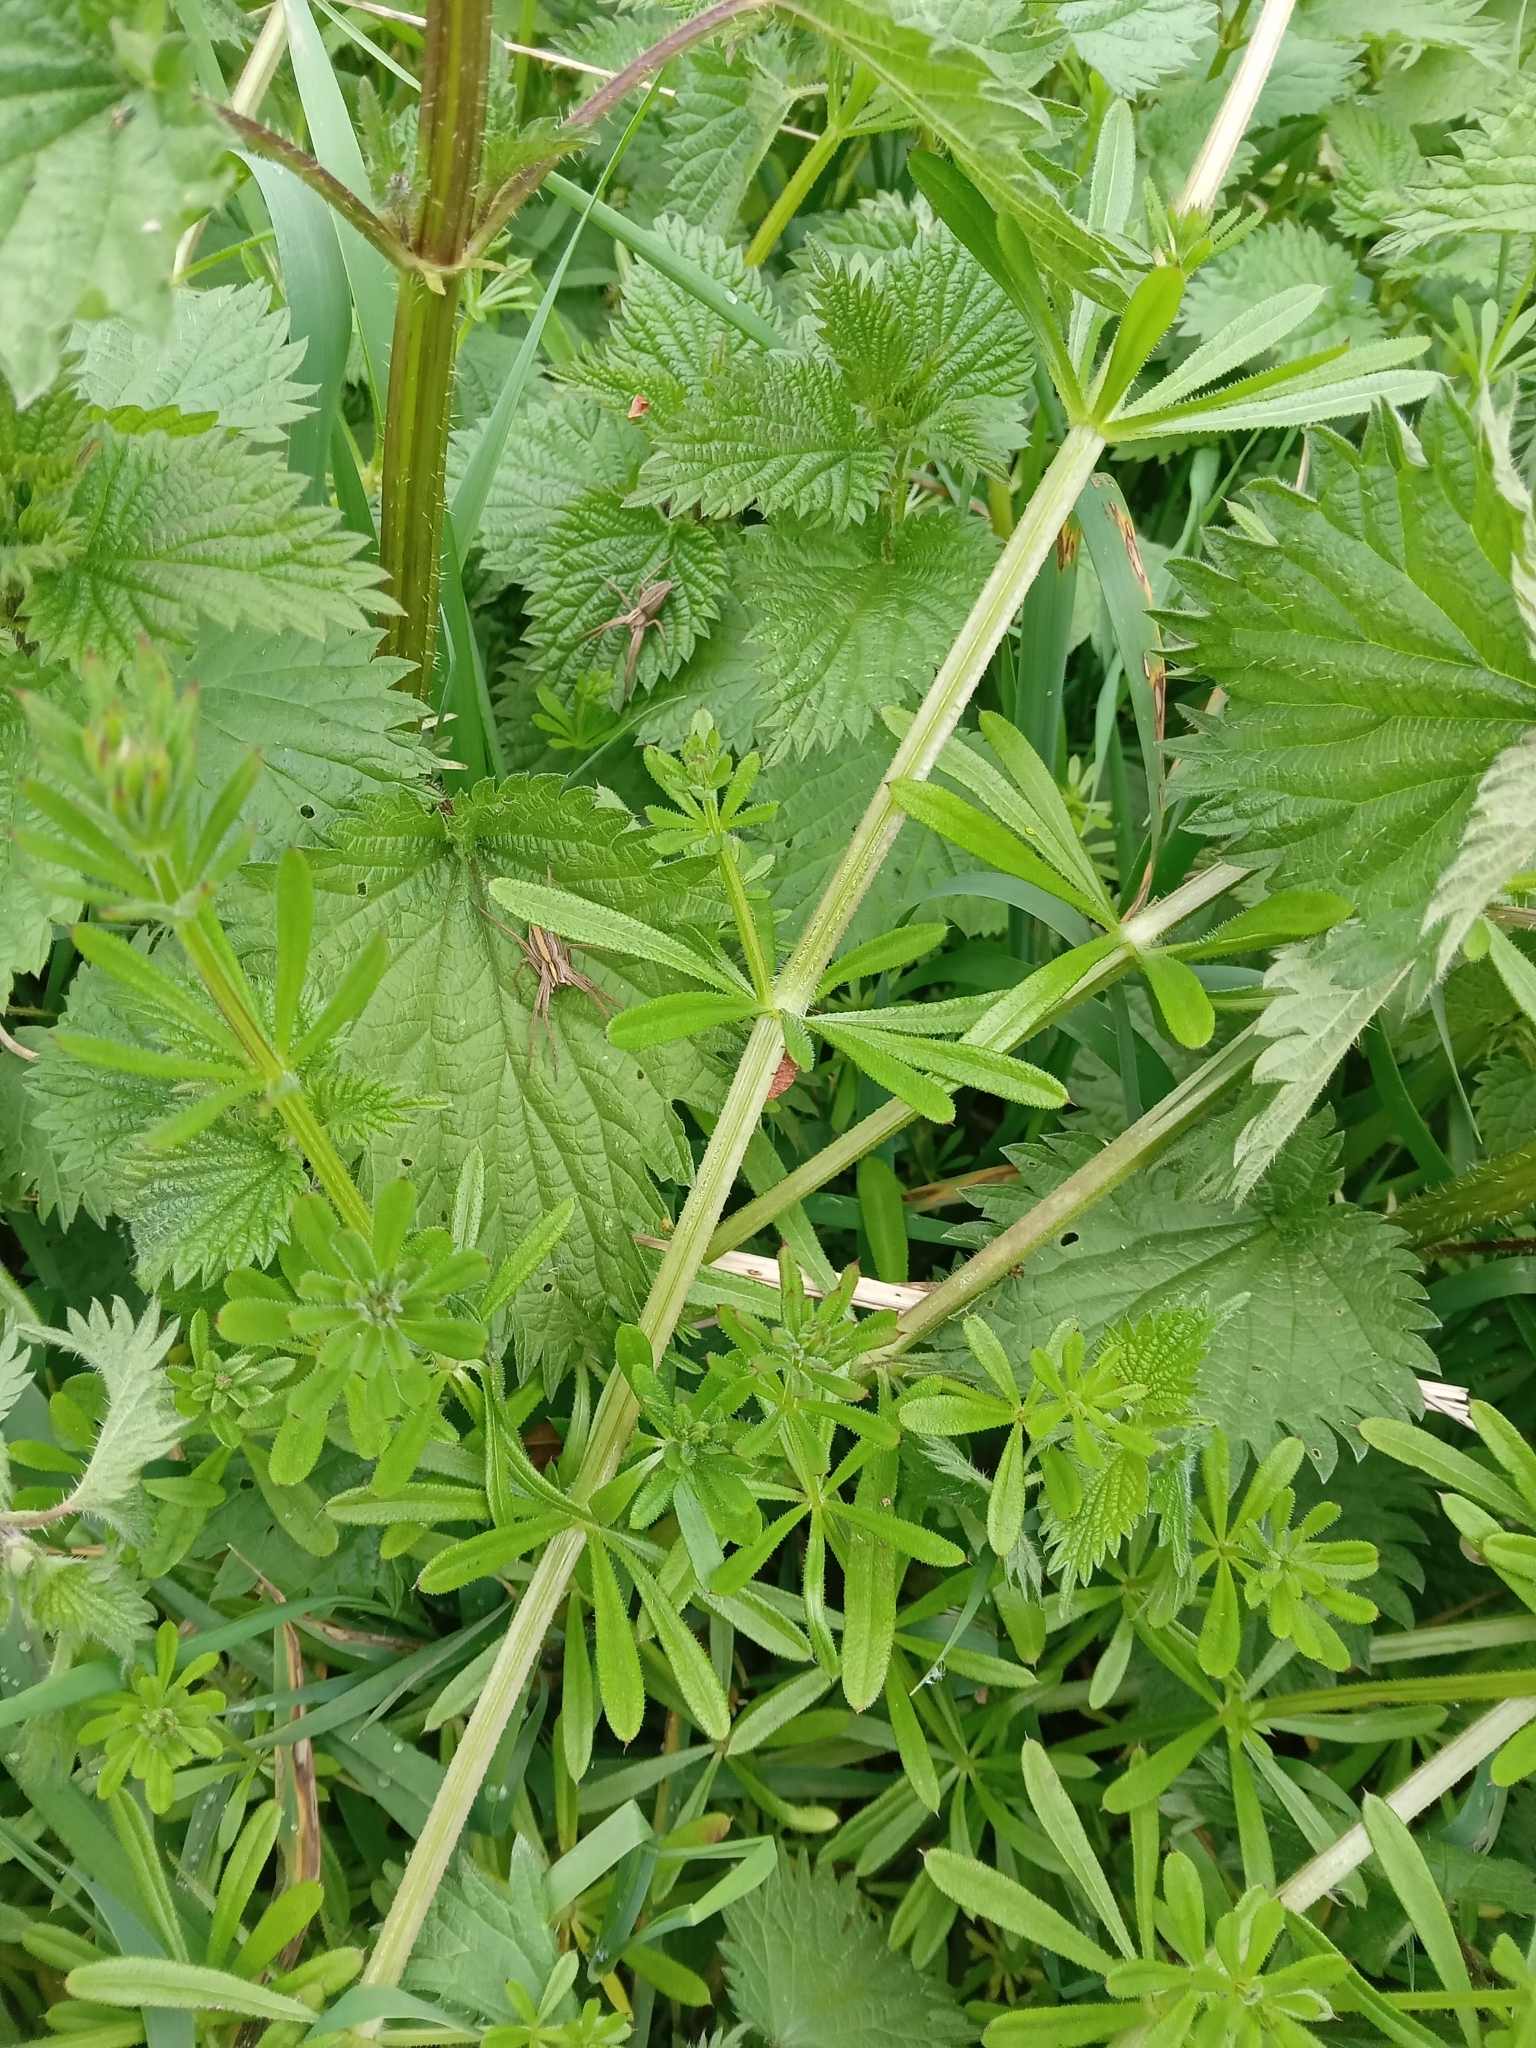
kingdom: Animalia
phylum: Arthropoda
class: Arachnida
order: Araneae
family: Pisauridae
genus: Pisaura
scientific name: Pisaura mirabilis
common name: Tent spider
